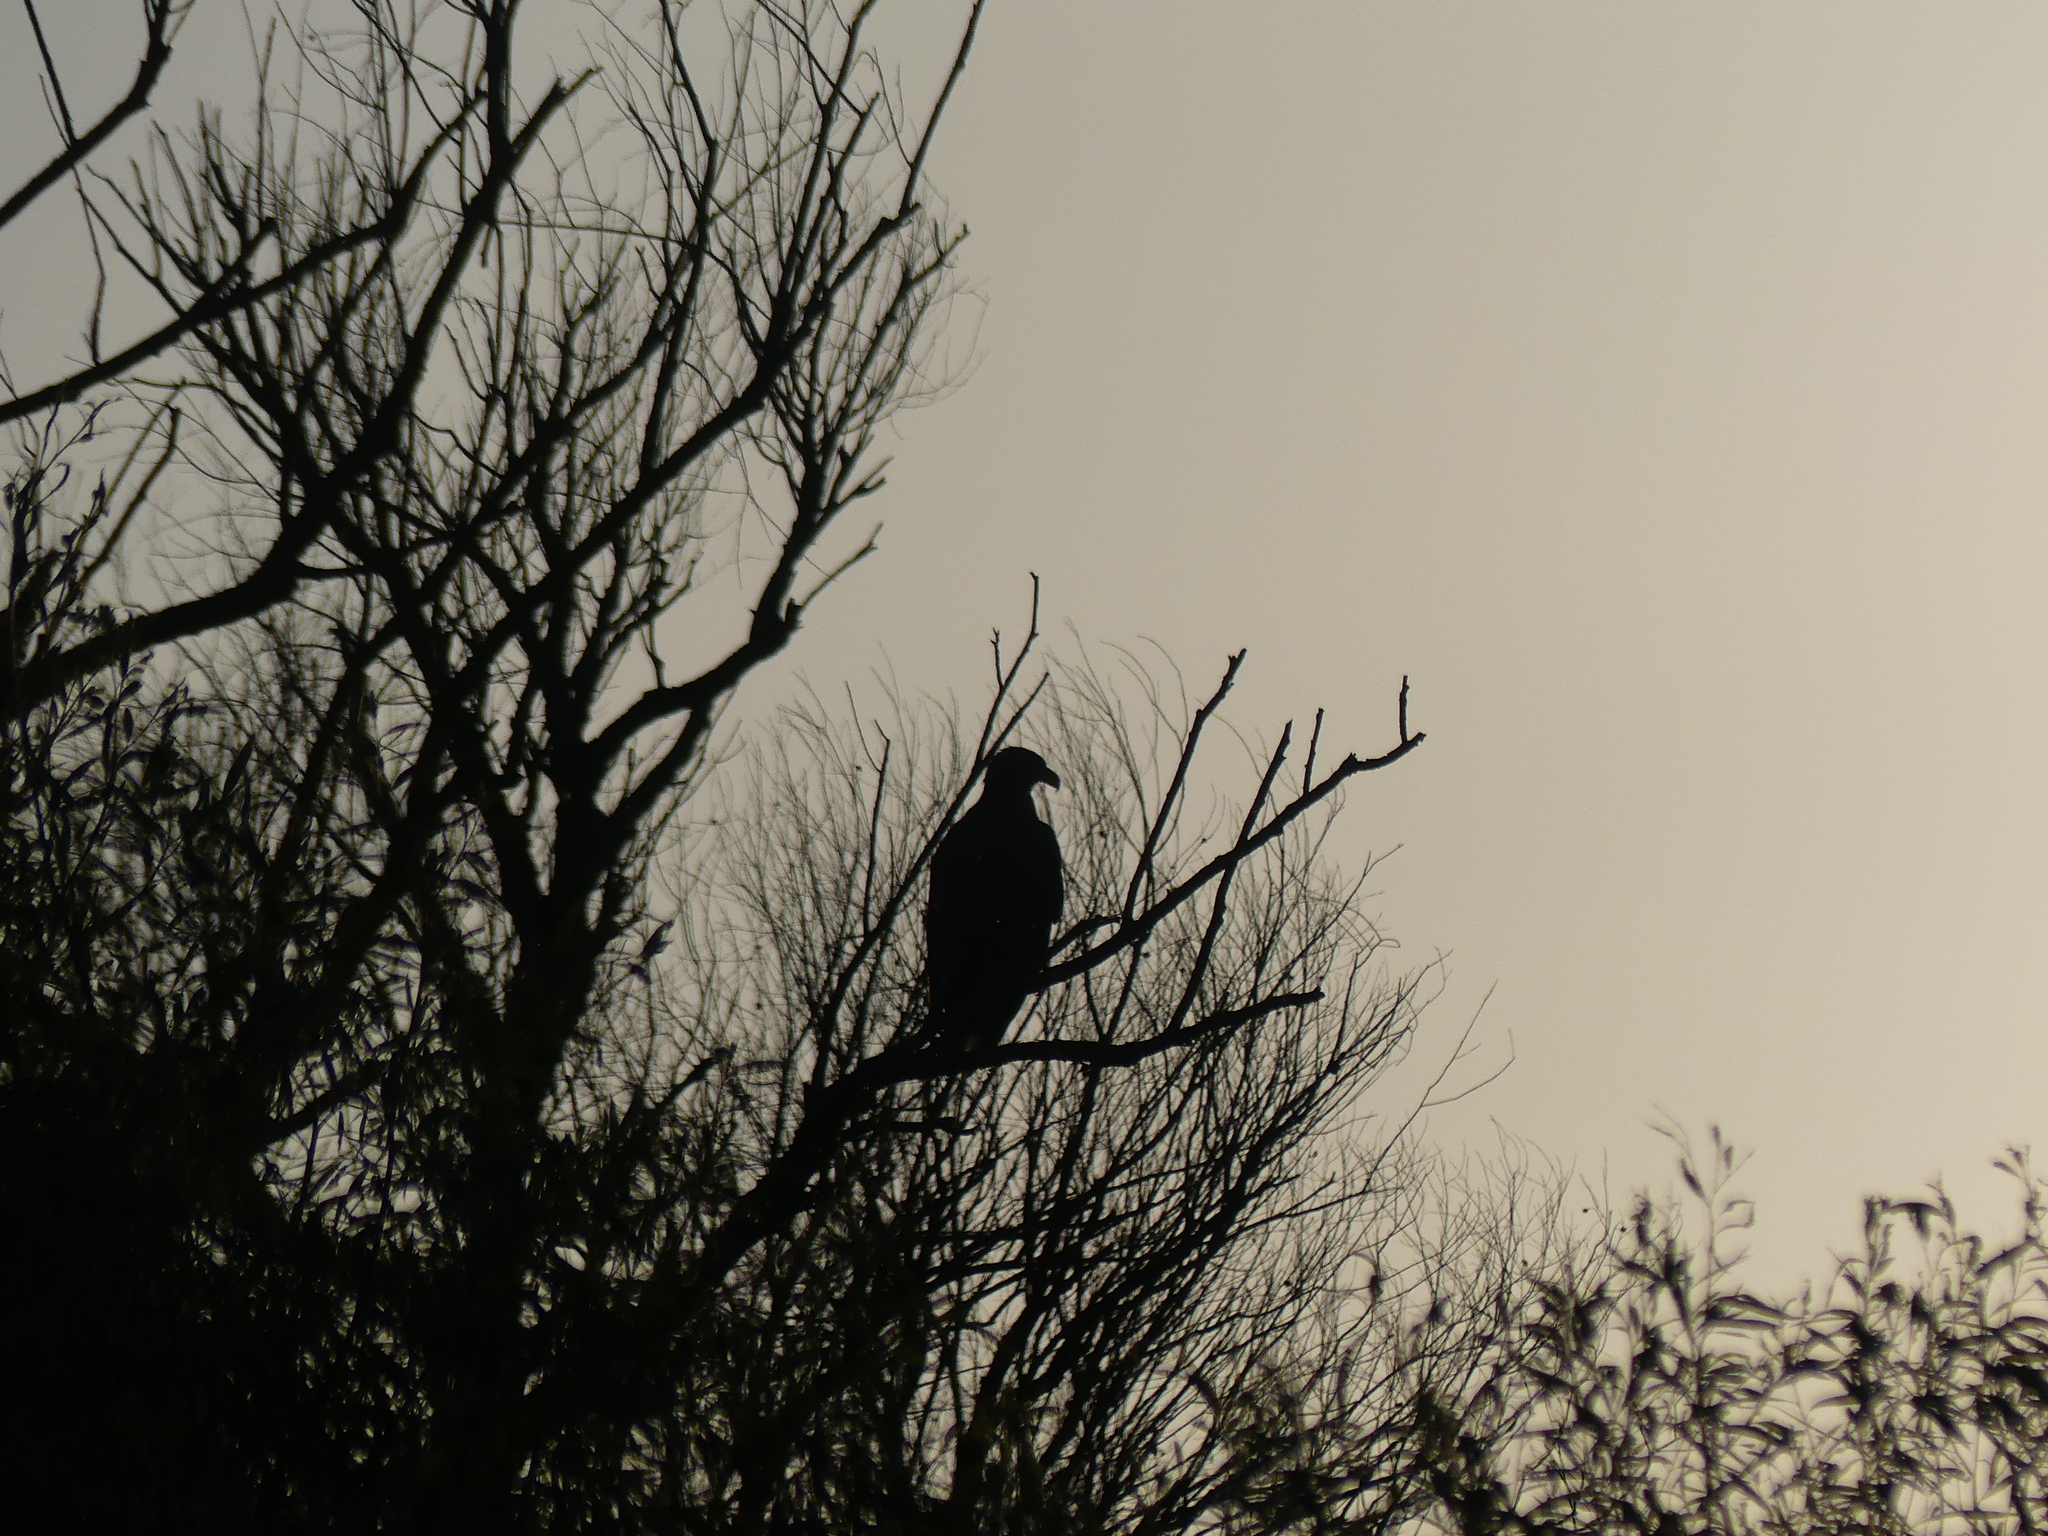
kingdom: Animalia
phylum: Chordata
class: Aves
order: Accipitriformes
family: Accipitridae
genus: Haliaeetus
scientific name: Haliaeetus albicilla
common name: White-tailed eagle
